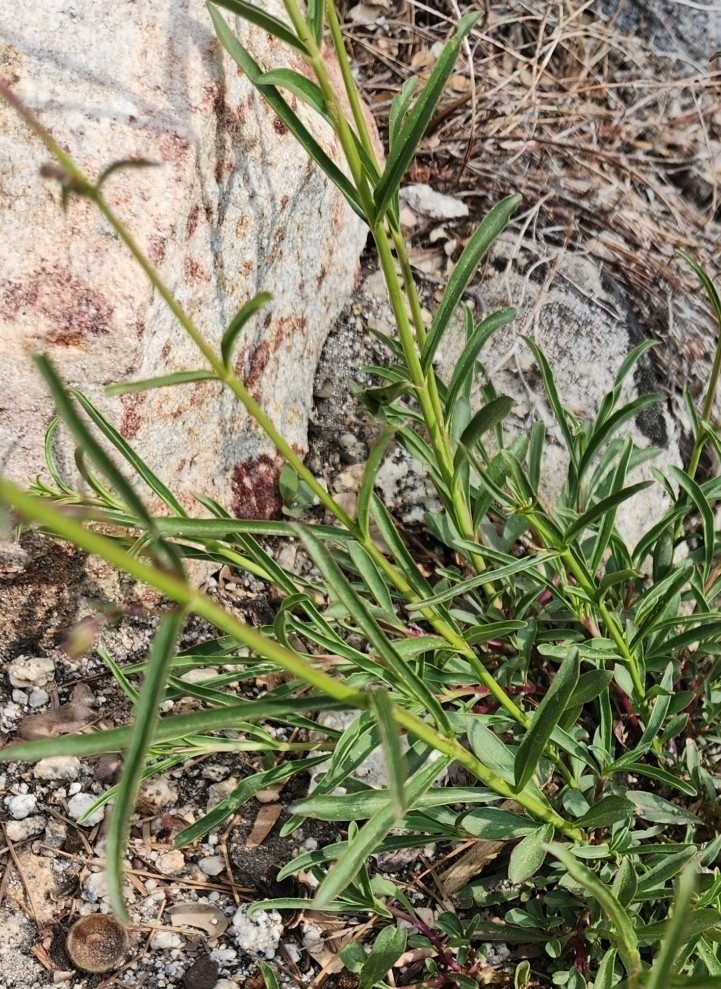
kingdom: Plantae
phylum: Tracheophyta
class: Magnoliopsida
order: Lamiales
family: Plantaginaceae
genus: Penstemon
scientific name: Penstemon rostriflorus
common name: Bridges's penstemon
